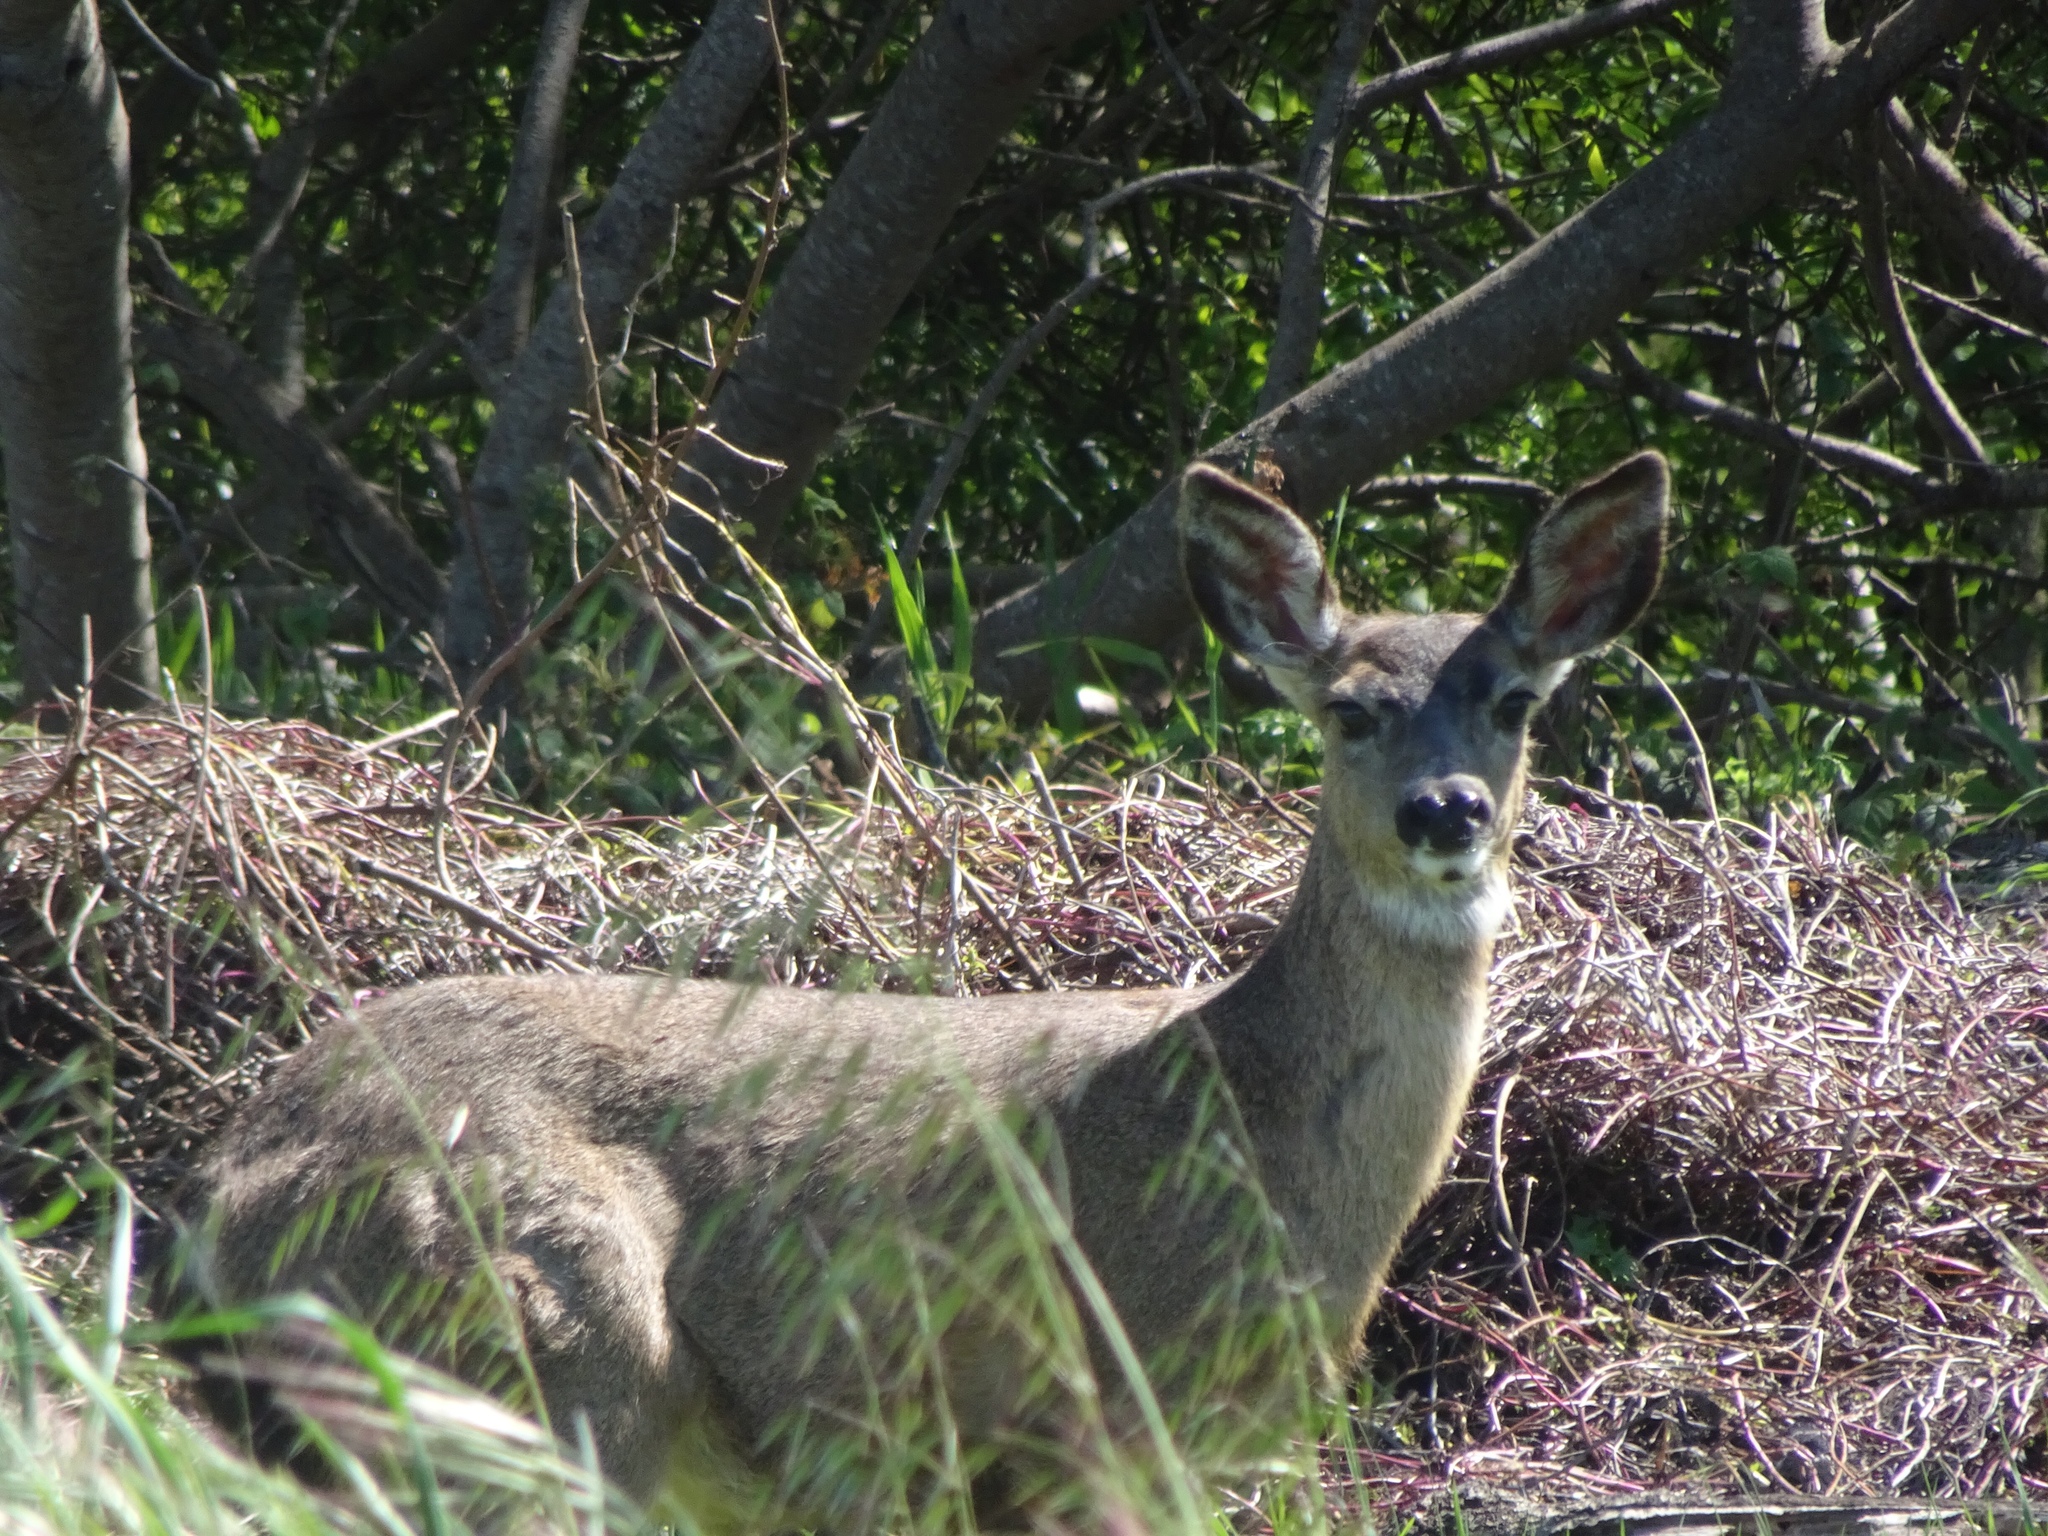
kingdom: Animalia
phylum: Chordata
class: Mammalia
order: Artiodactyla
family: Cervidae
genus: Odocoileus
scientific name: Odocoileus hemionus
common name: Mule deer
